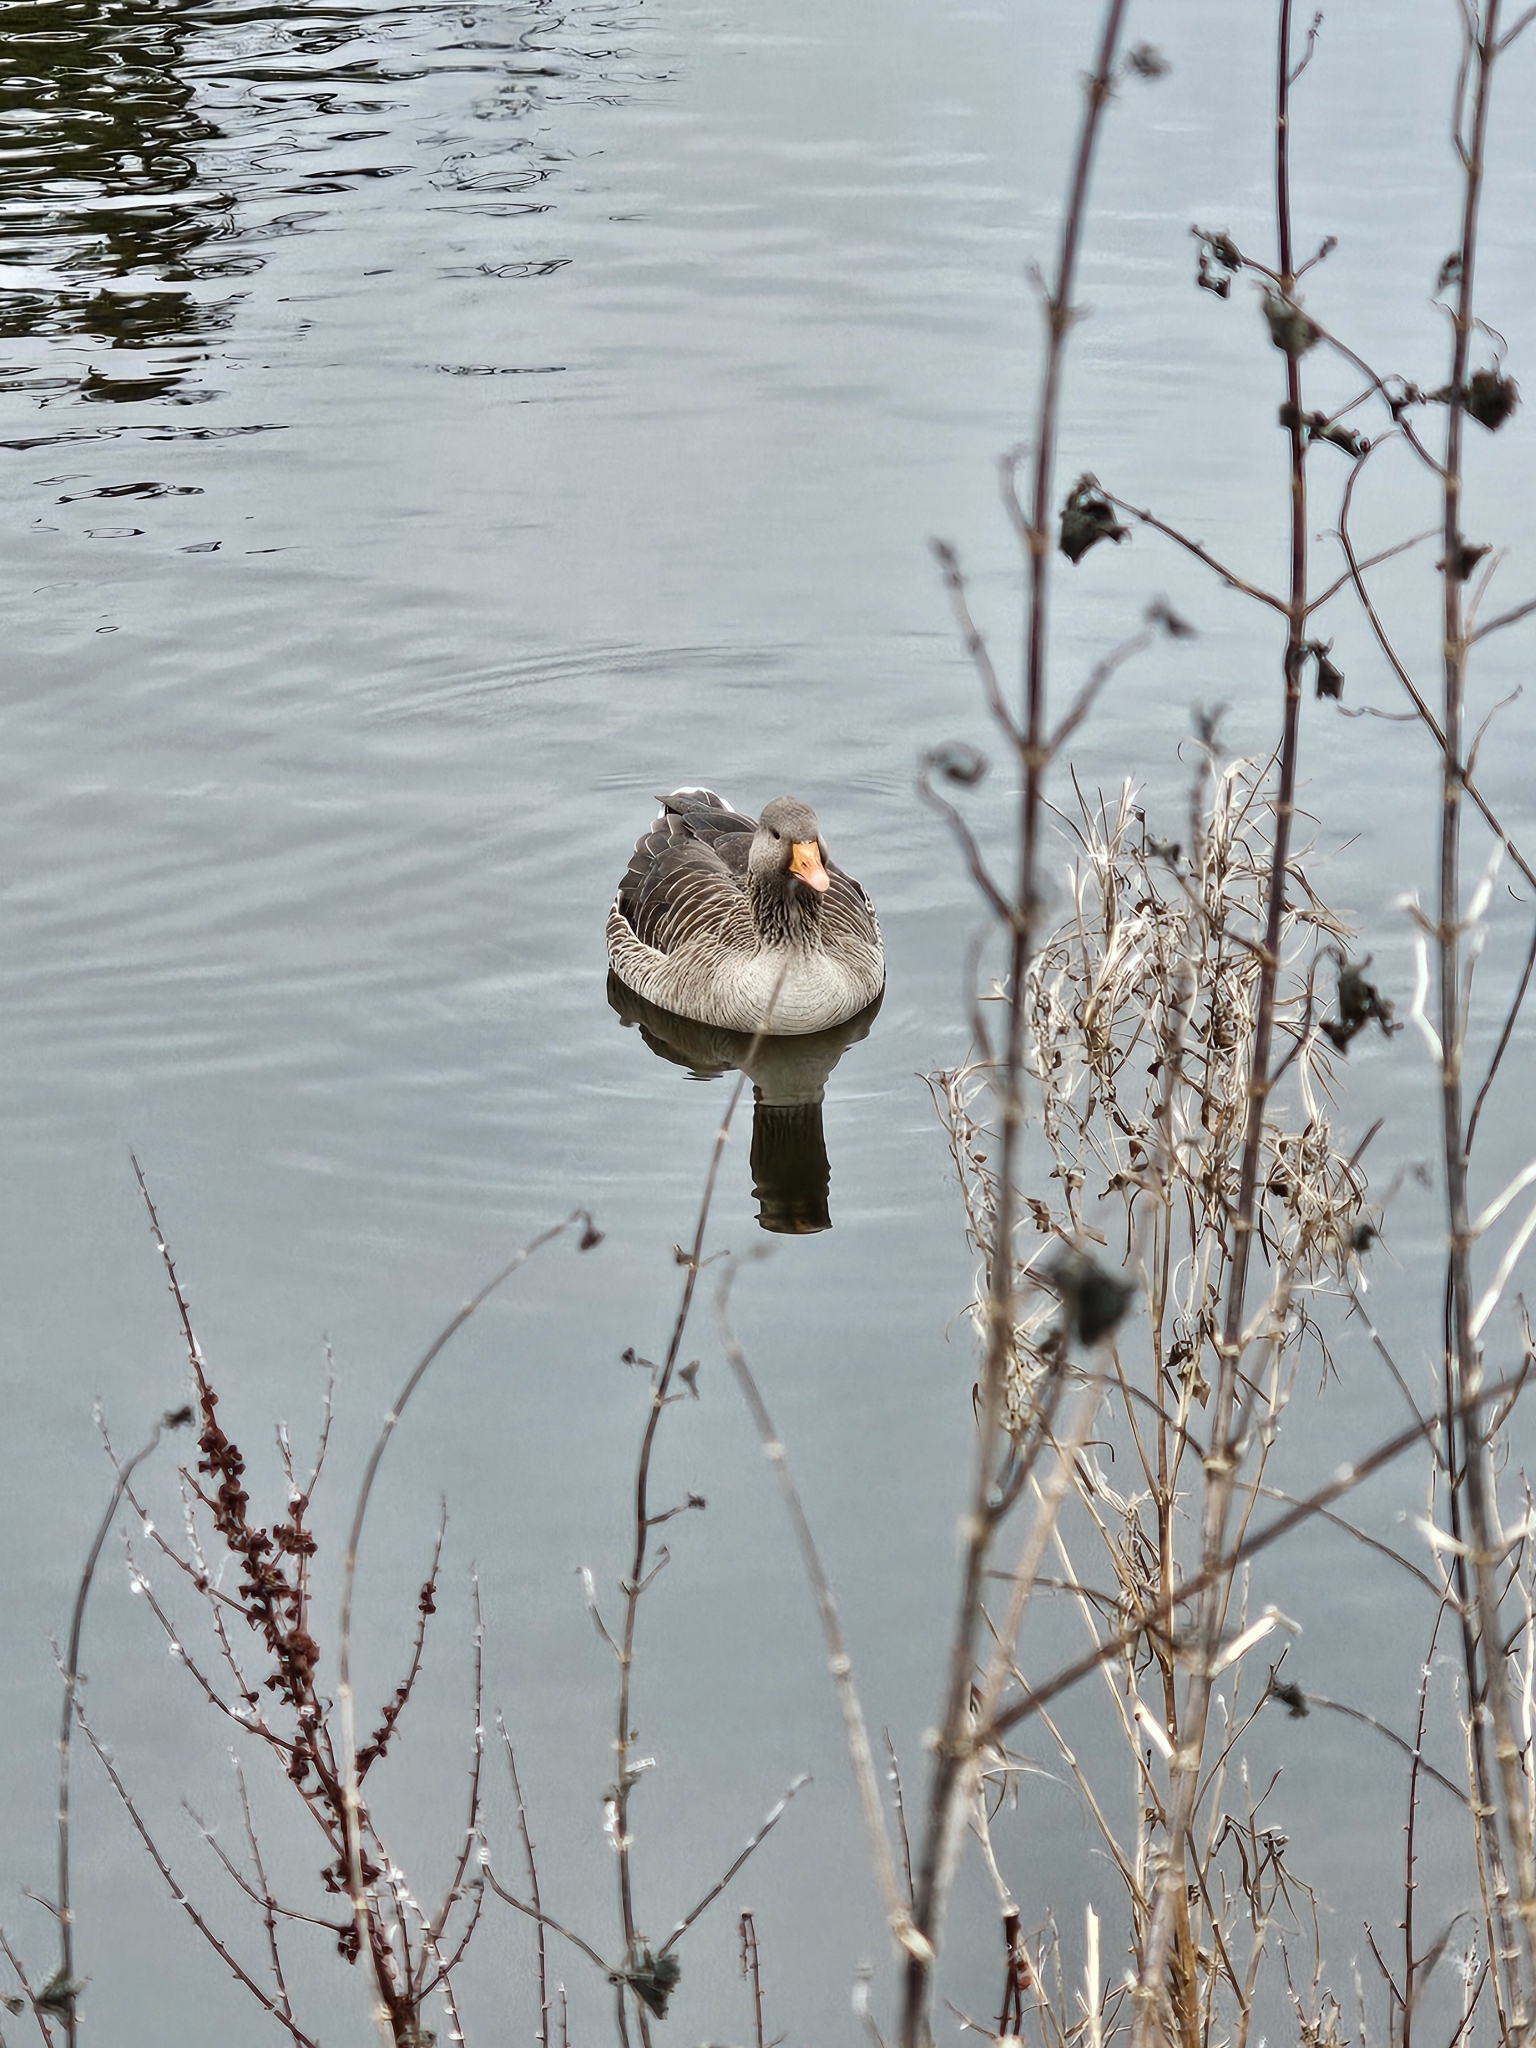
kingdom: Animalia
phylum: Chordata
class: Aves
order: Anseriformes
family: Anatidae
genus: Anser
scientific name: Anser anser
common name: Greylag goose
